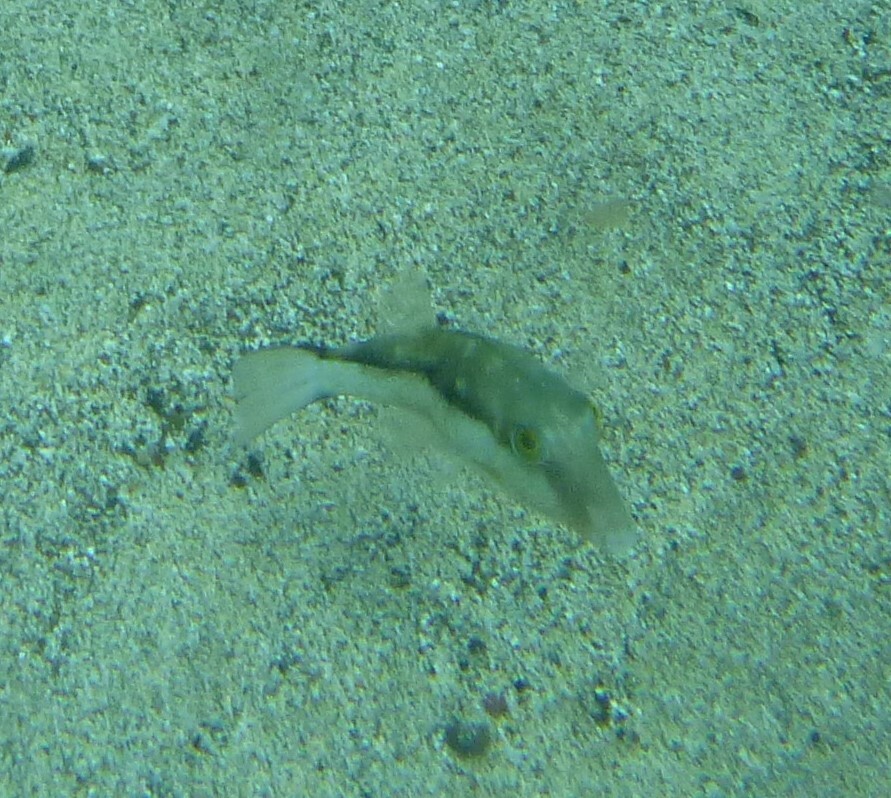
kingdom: Animalia
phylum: Chordata
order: Tetraodontiformes
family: Tetraodontidae
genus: Canthigaster
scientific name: Canthigaster capistrata
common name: Macaronesian sharpnose-puffer
